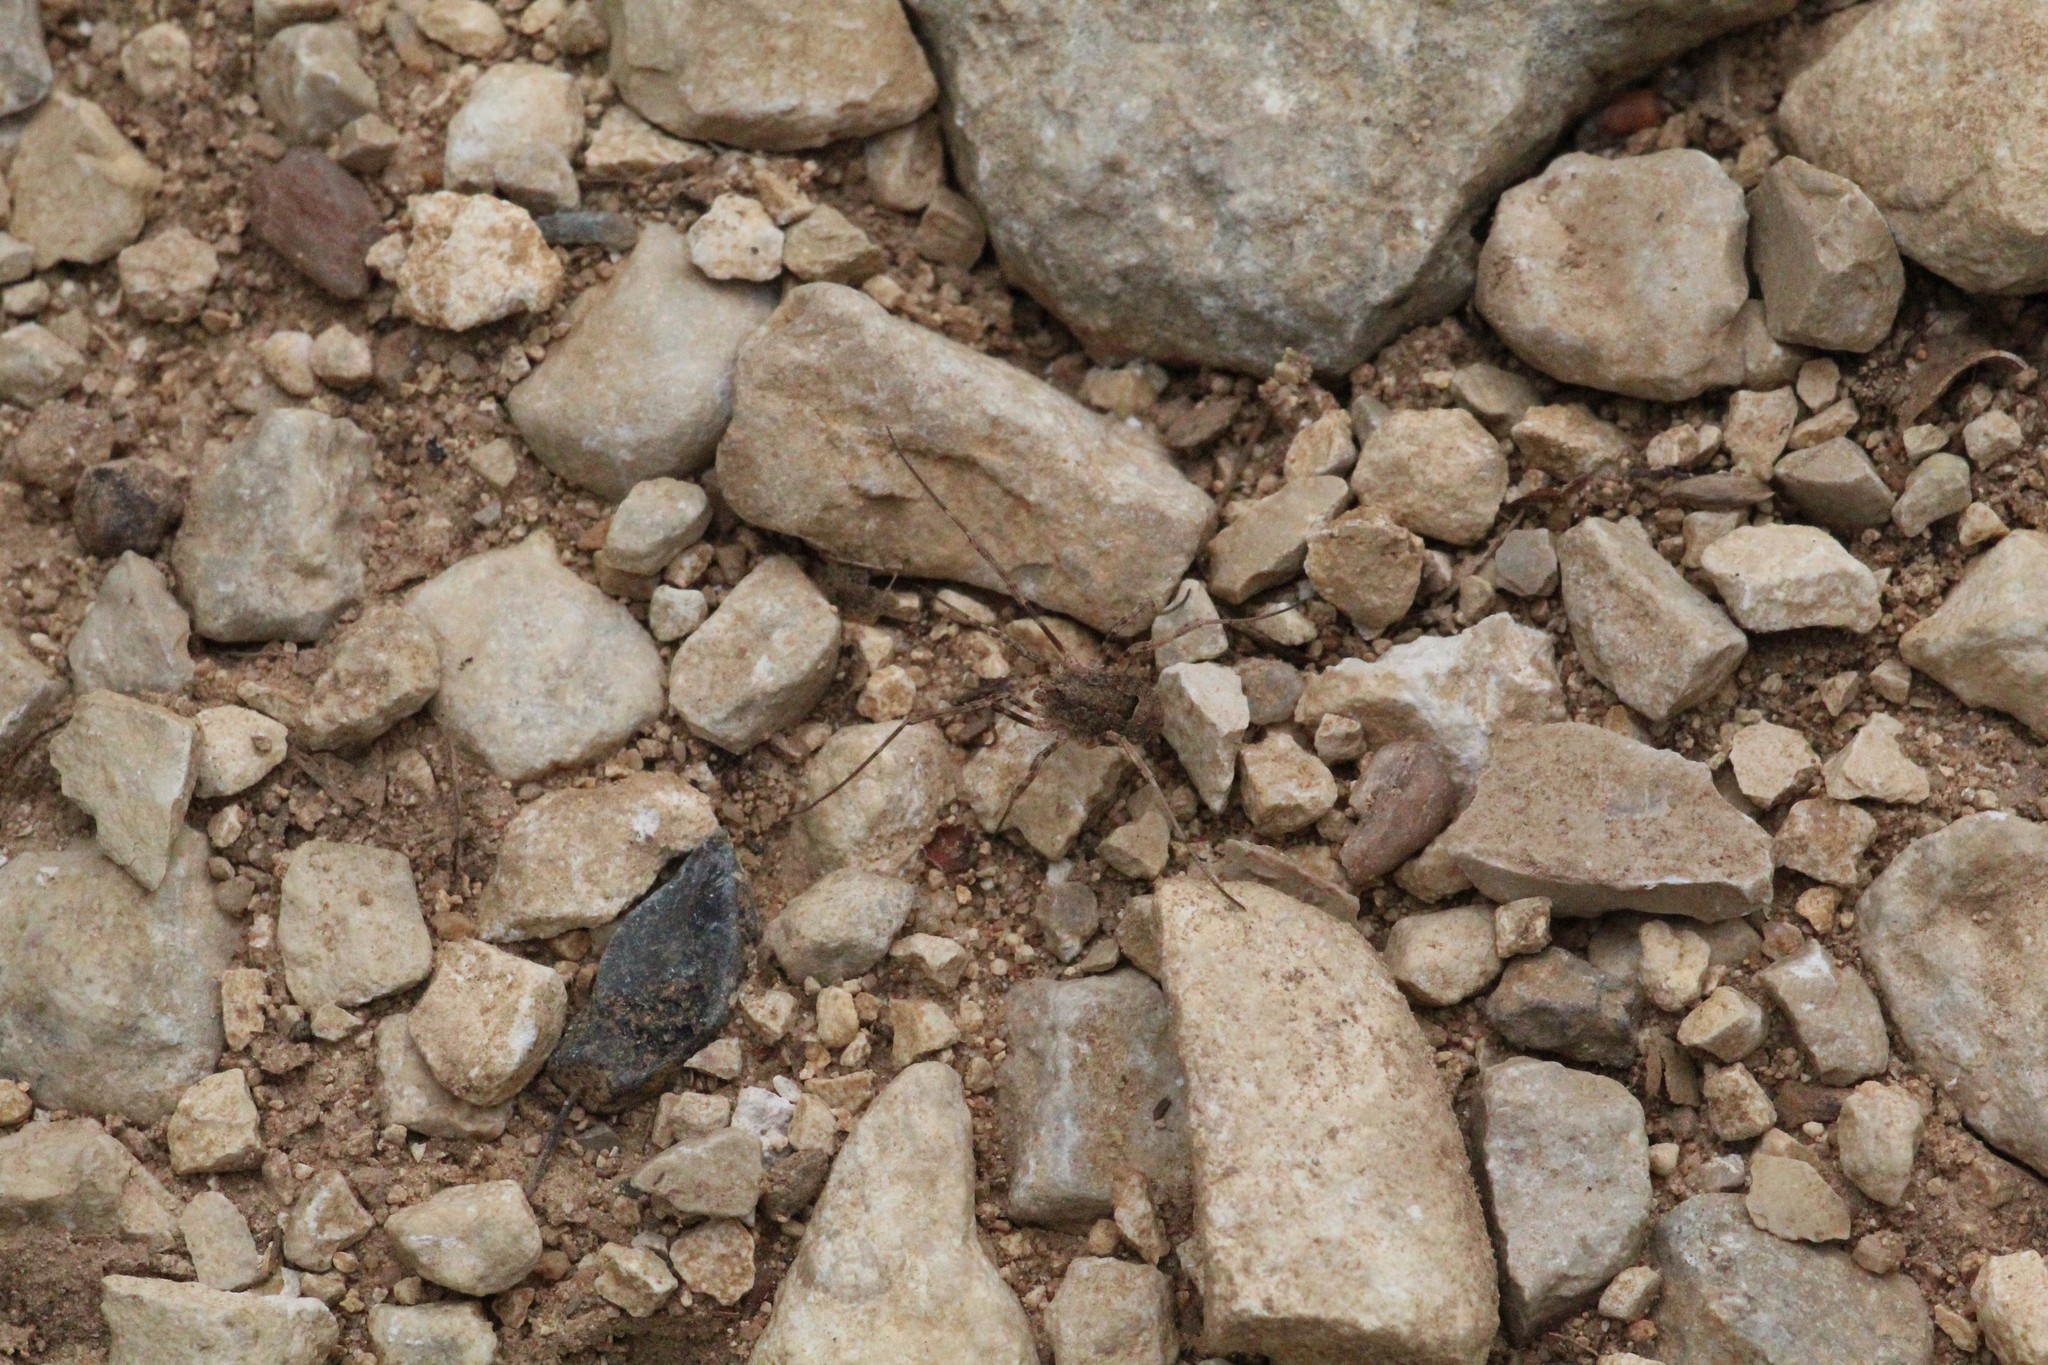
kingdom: Animalia
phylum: Arthropoda
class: Arachnida
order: Opiliones
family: Phalangiidae
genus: Odiellus
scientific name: Odiellus spinosus
